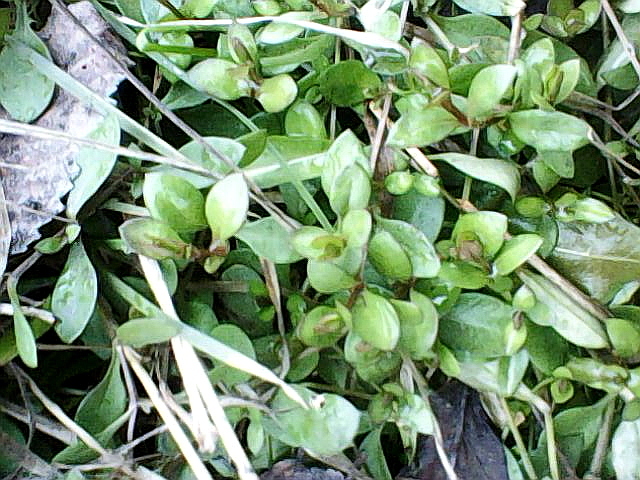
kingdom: Plantae
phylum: Tracheophyta
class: Magnoliopsida
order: Caryophyllales
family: Caryophyllaceae
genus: Stellaria
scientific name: Stellaria graminea
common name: Grass-like starwort
